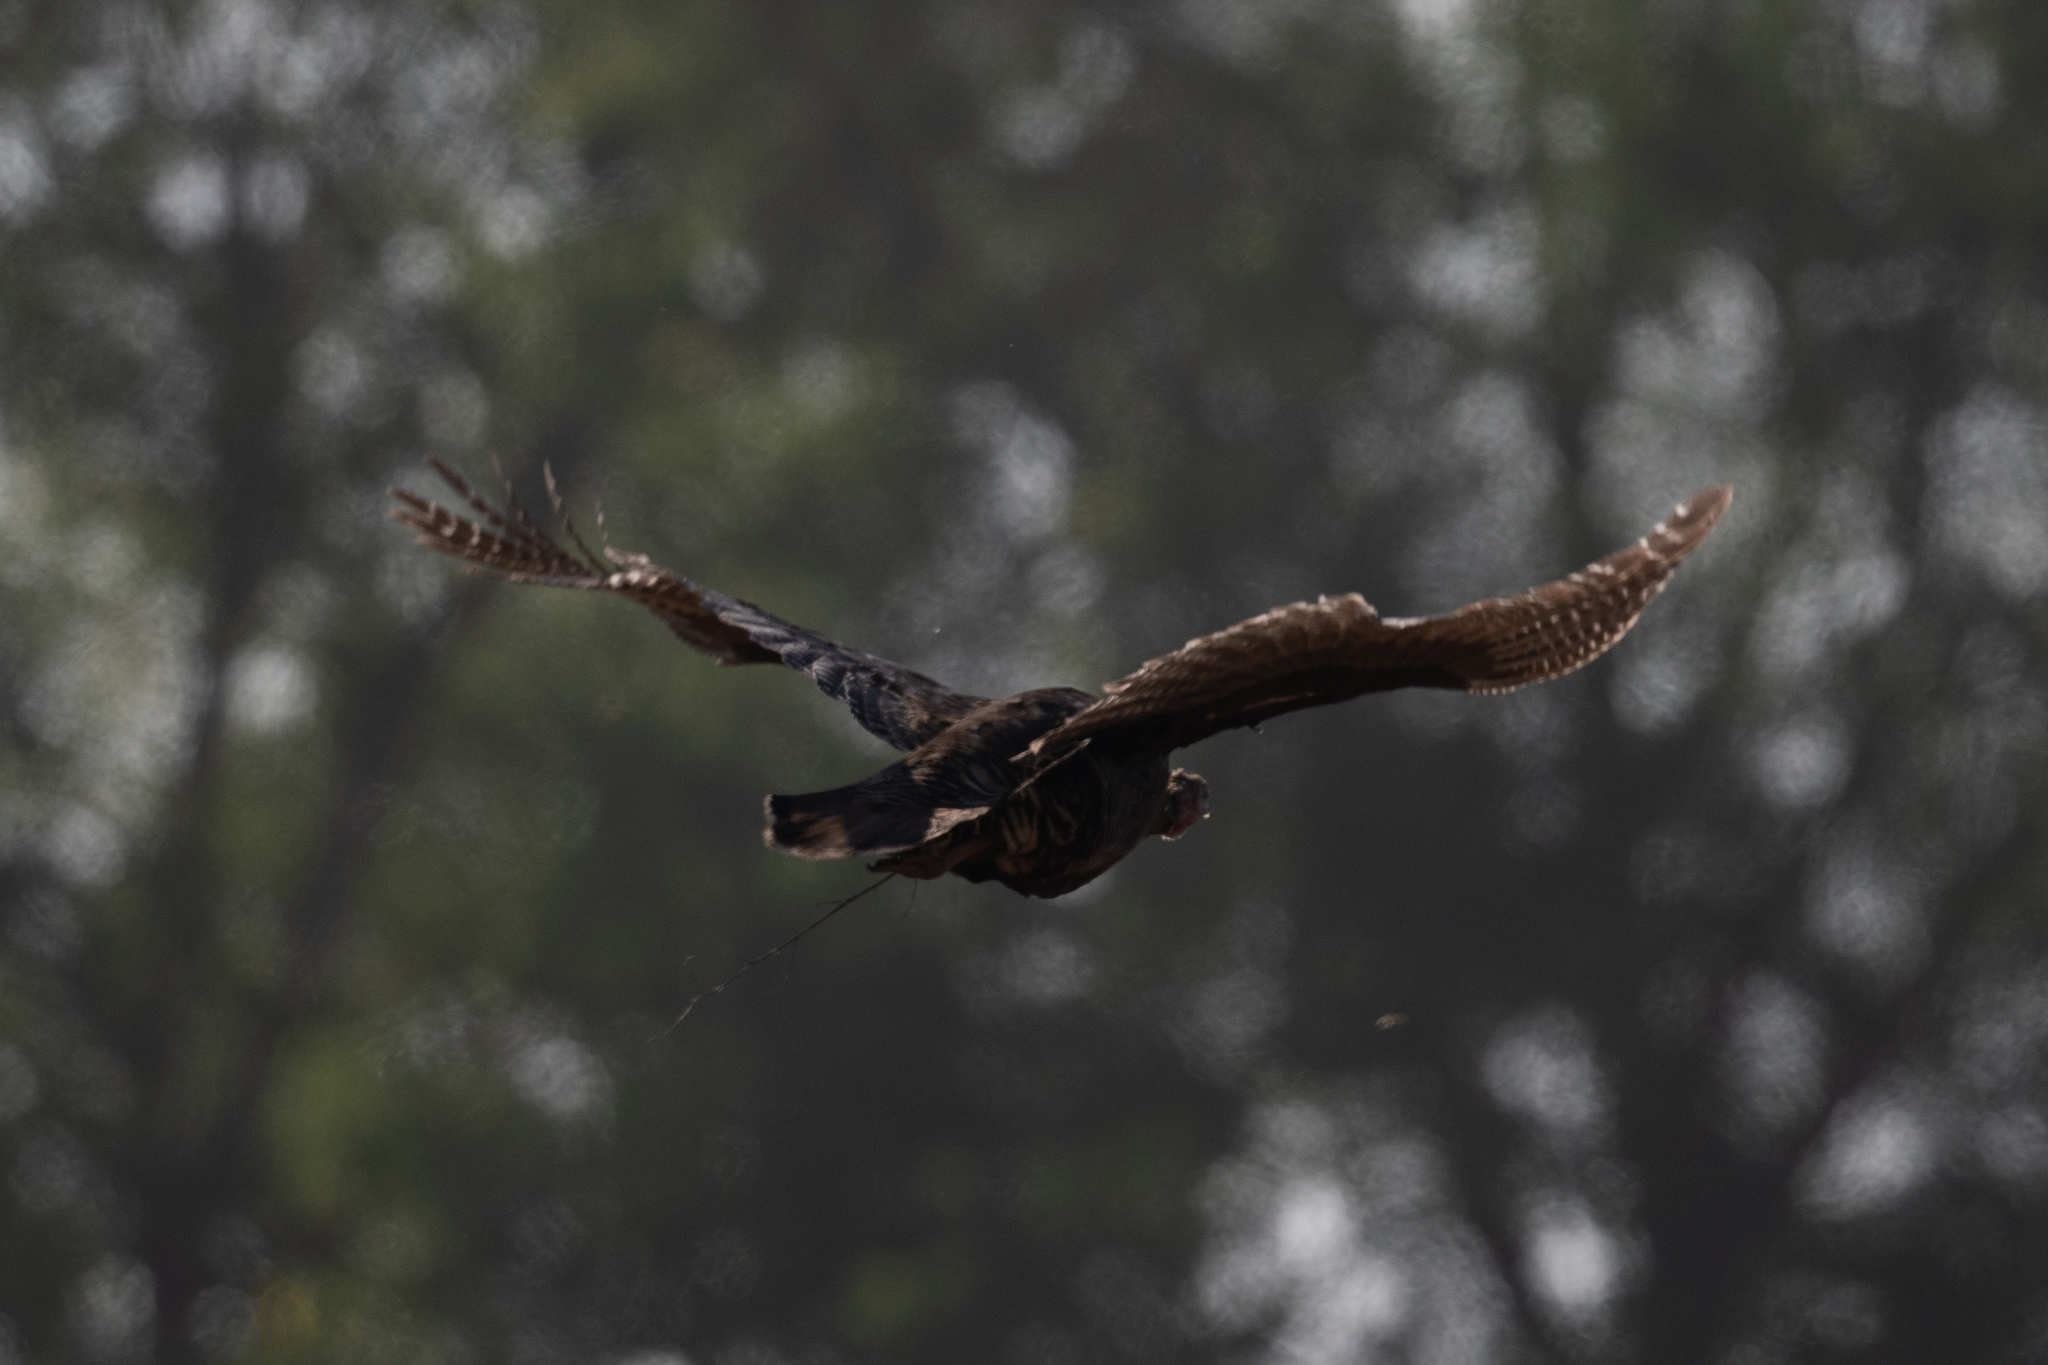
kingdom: Animalia
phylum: Chordata
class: Aves
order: Galliformes
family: Phasianidae
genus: Phasianus
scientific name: Phasianus colchicus
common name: Common pheasant
